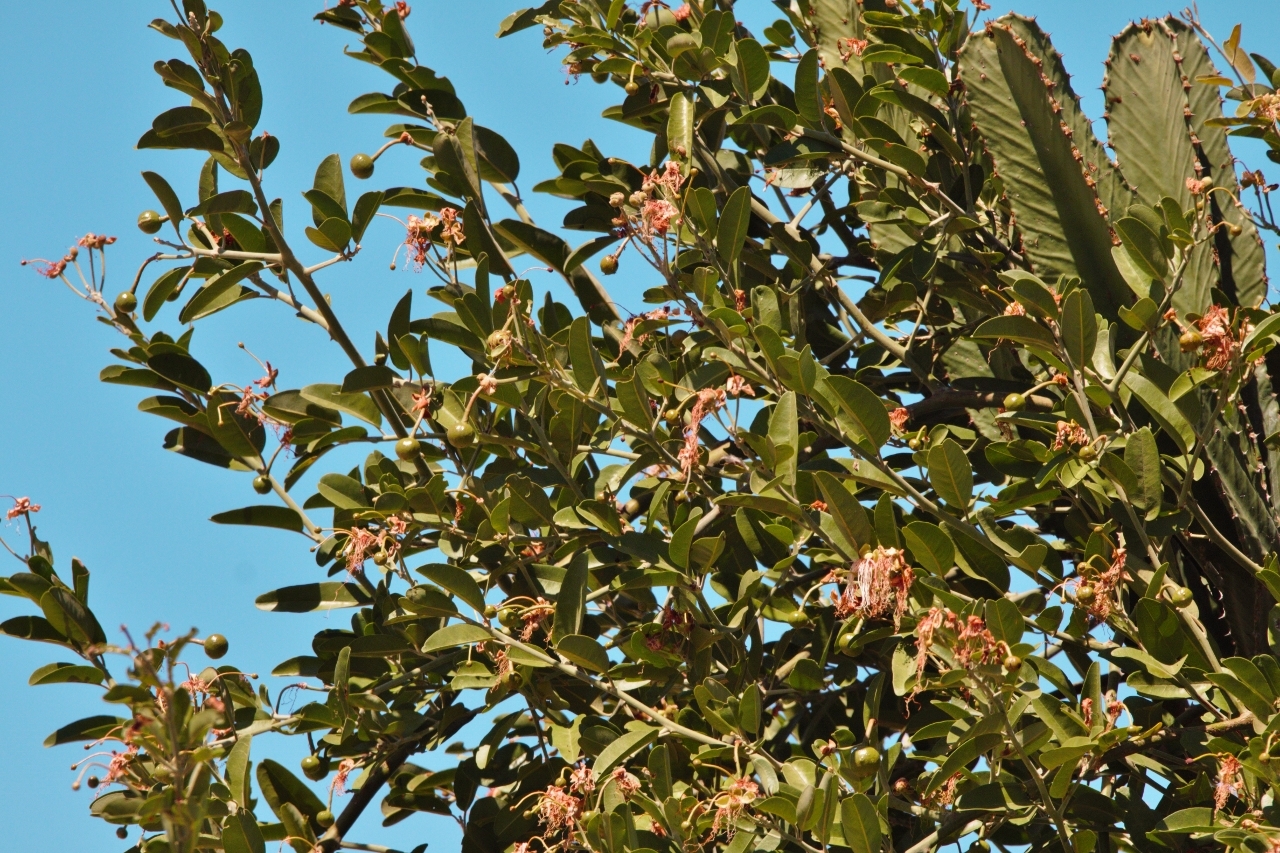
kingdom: Plantae
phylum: Tracheophyta
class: Magnoliopsida
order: Brassicales
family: Capparaceae
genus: Capparis
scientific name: Capparis tomentosa
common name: African caper
